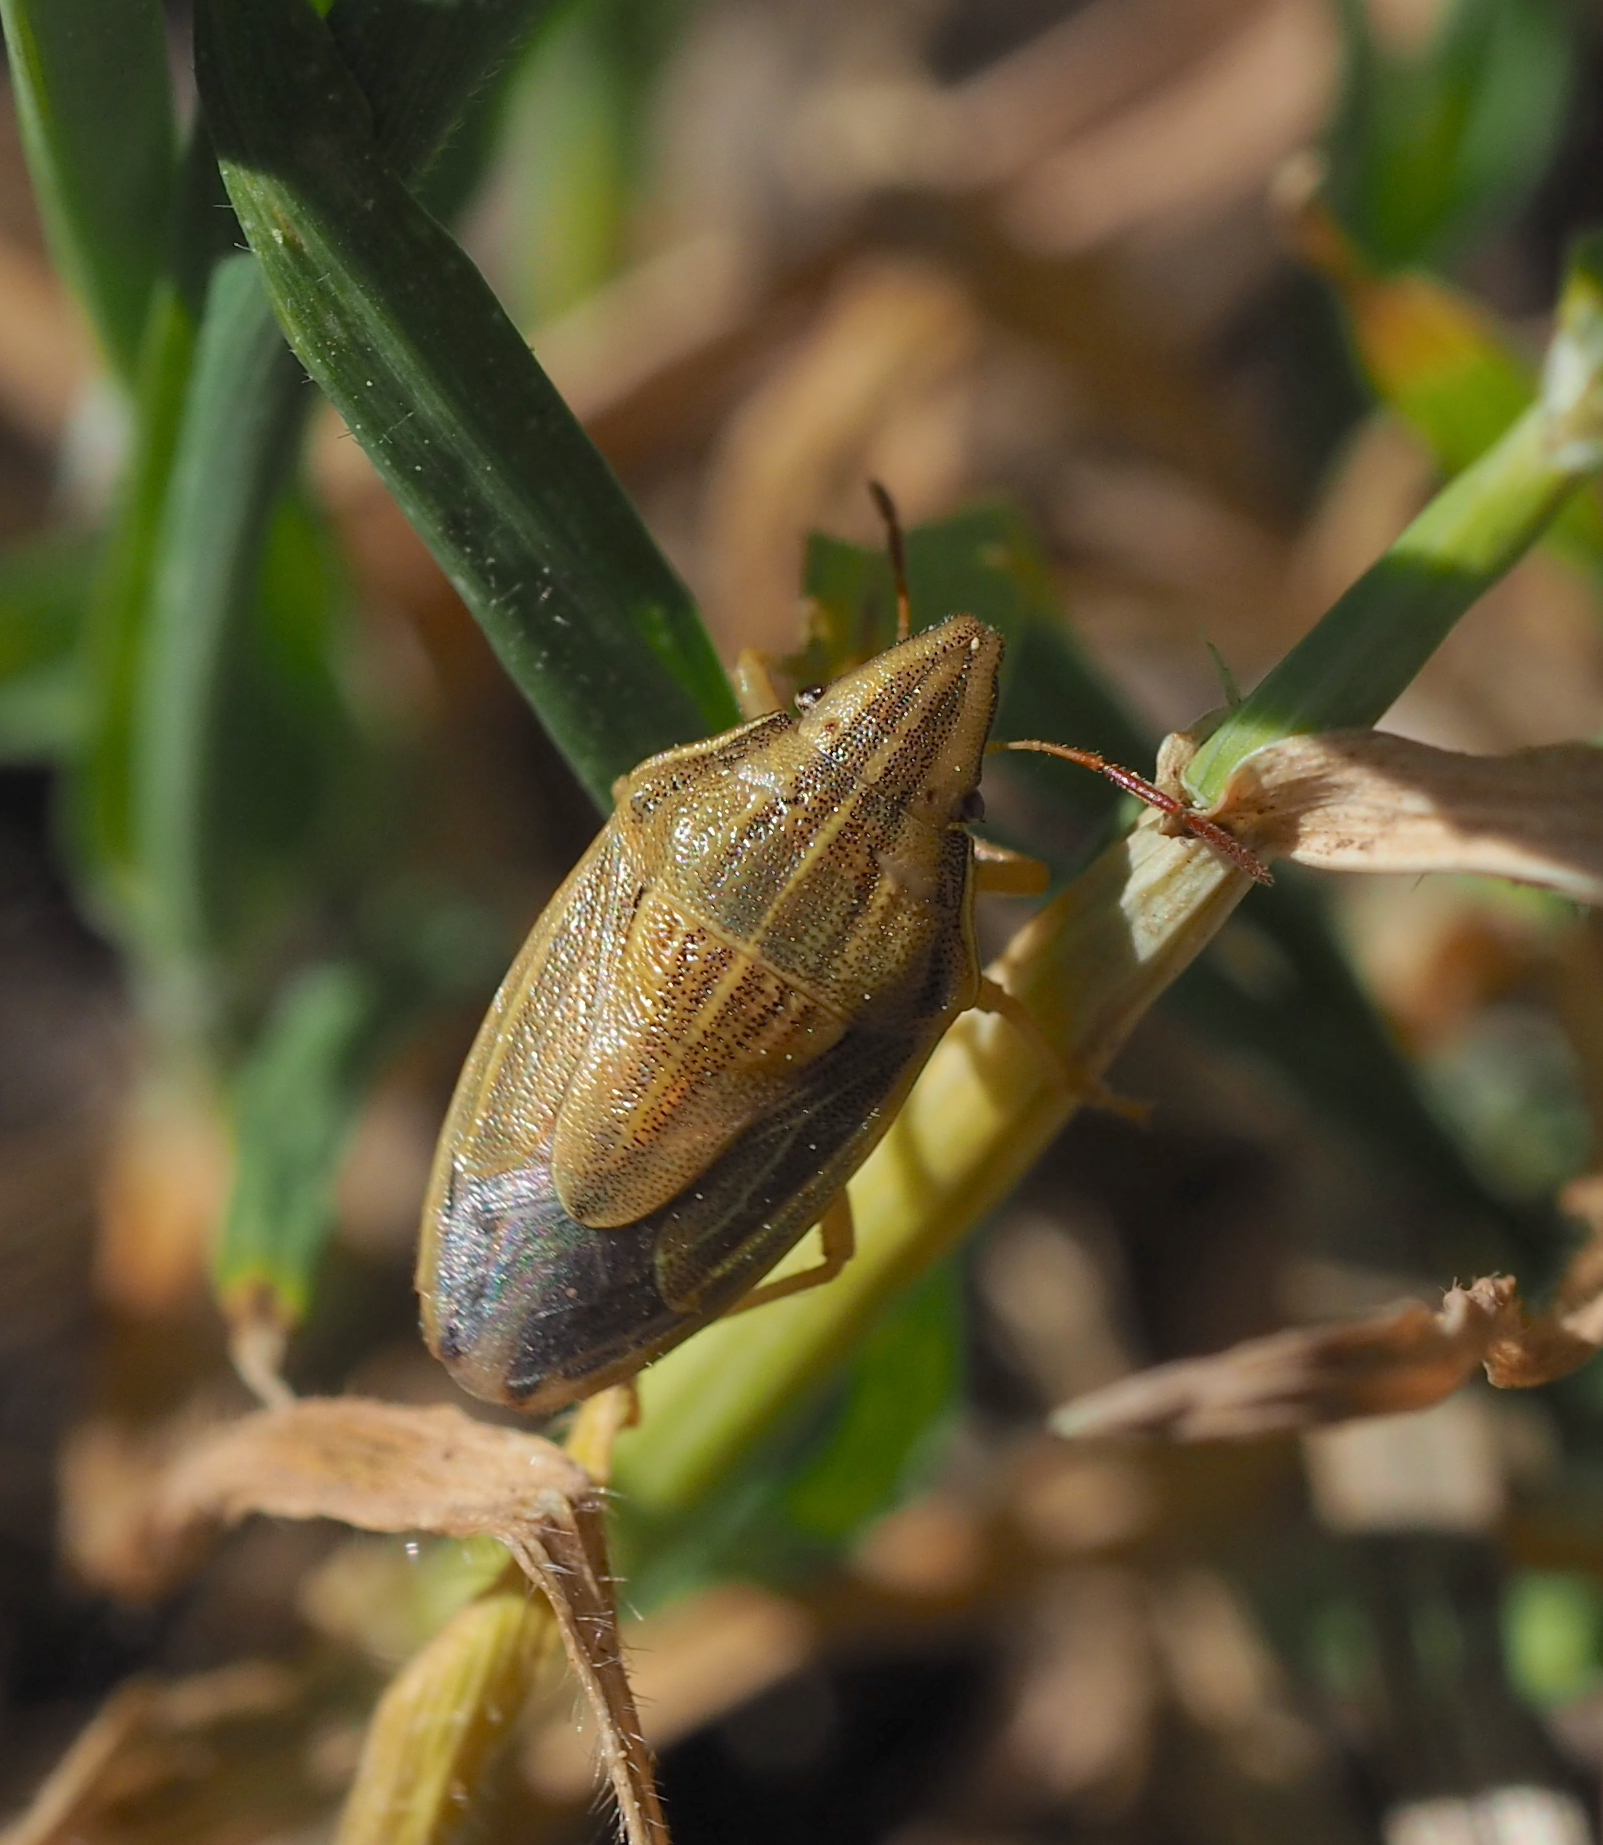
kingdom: Animalia
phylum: Arthropoda
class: Insecta
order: Hemiptera
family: Pentatomidae
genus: Aelia
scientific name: Aelia acuminata
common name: Bishop's mitre
